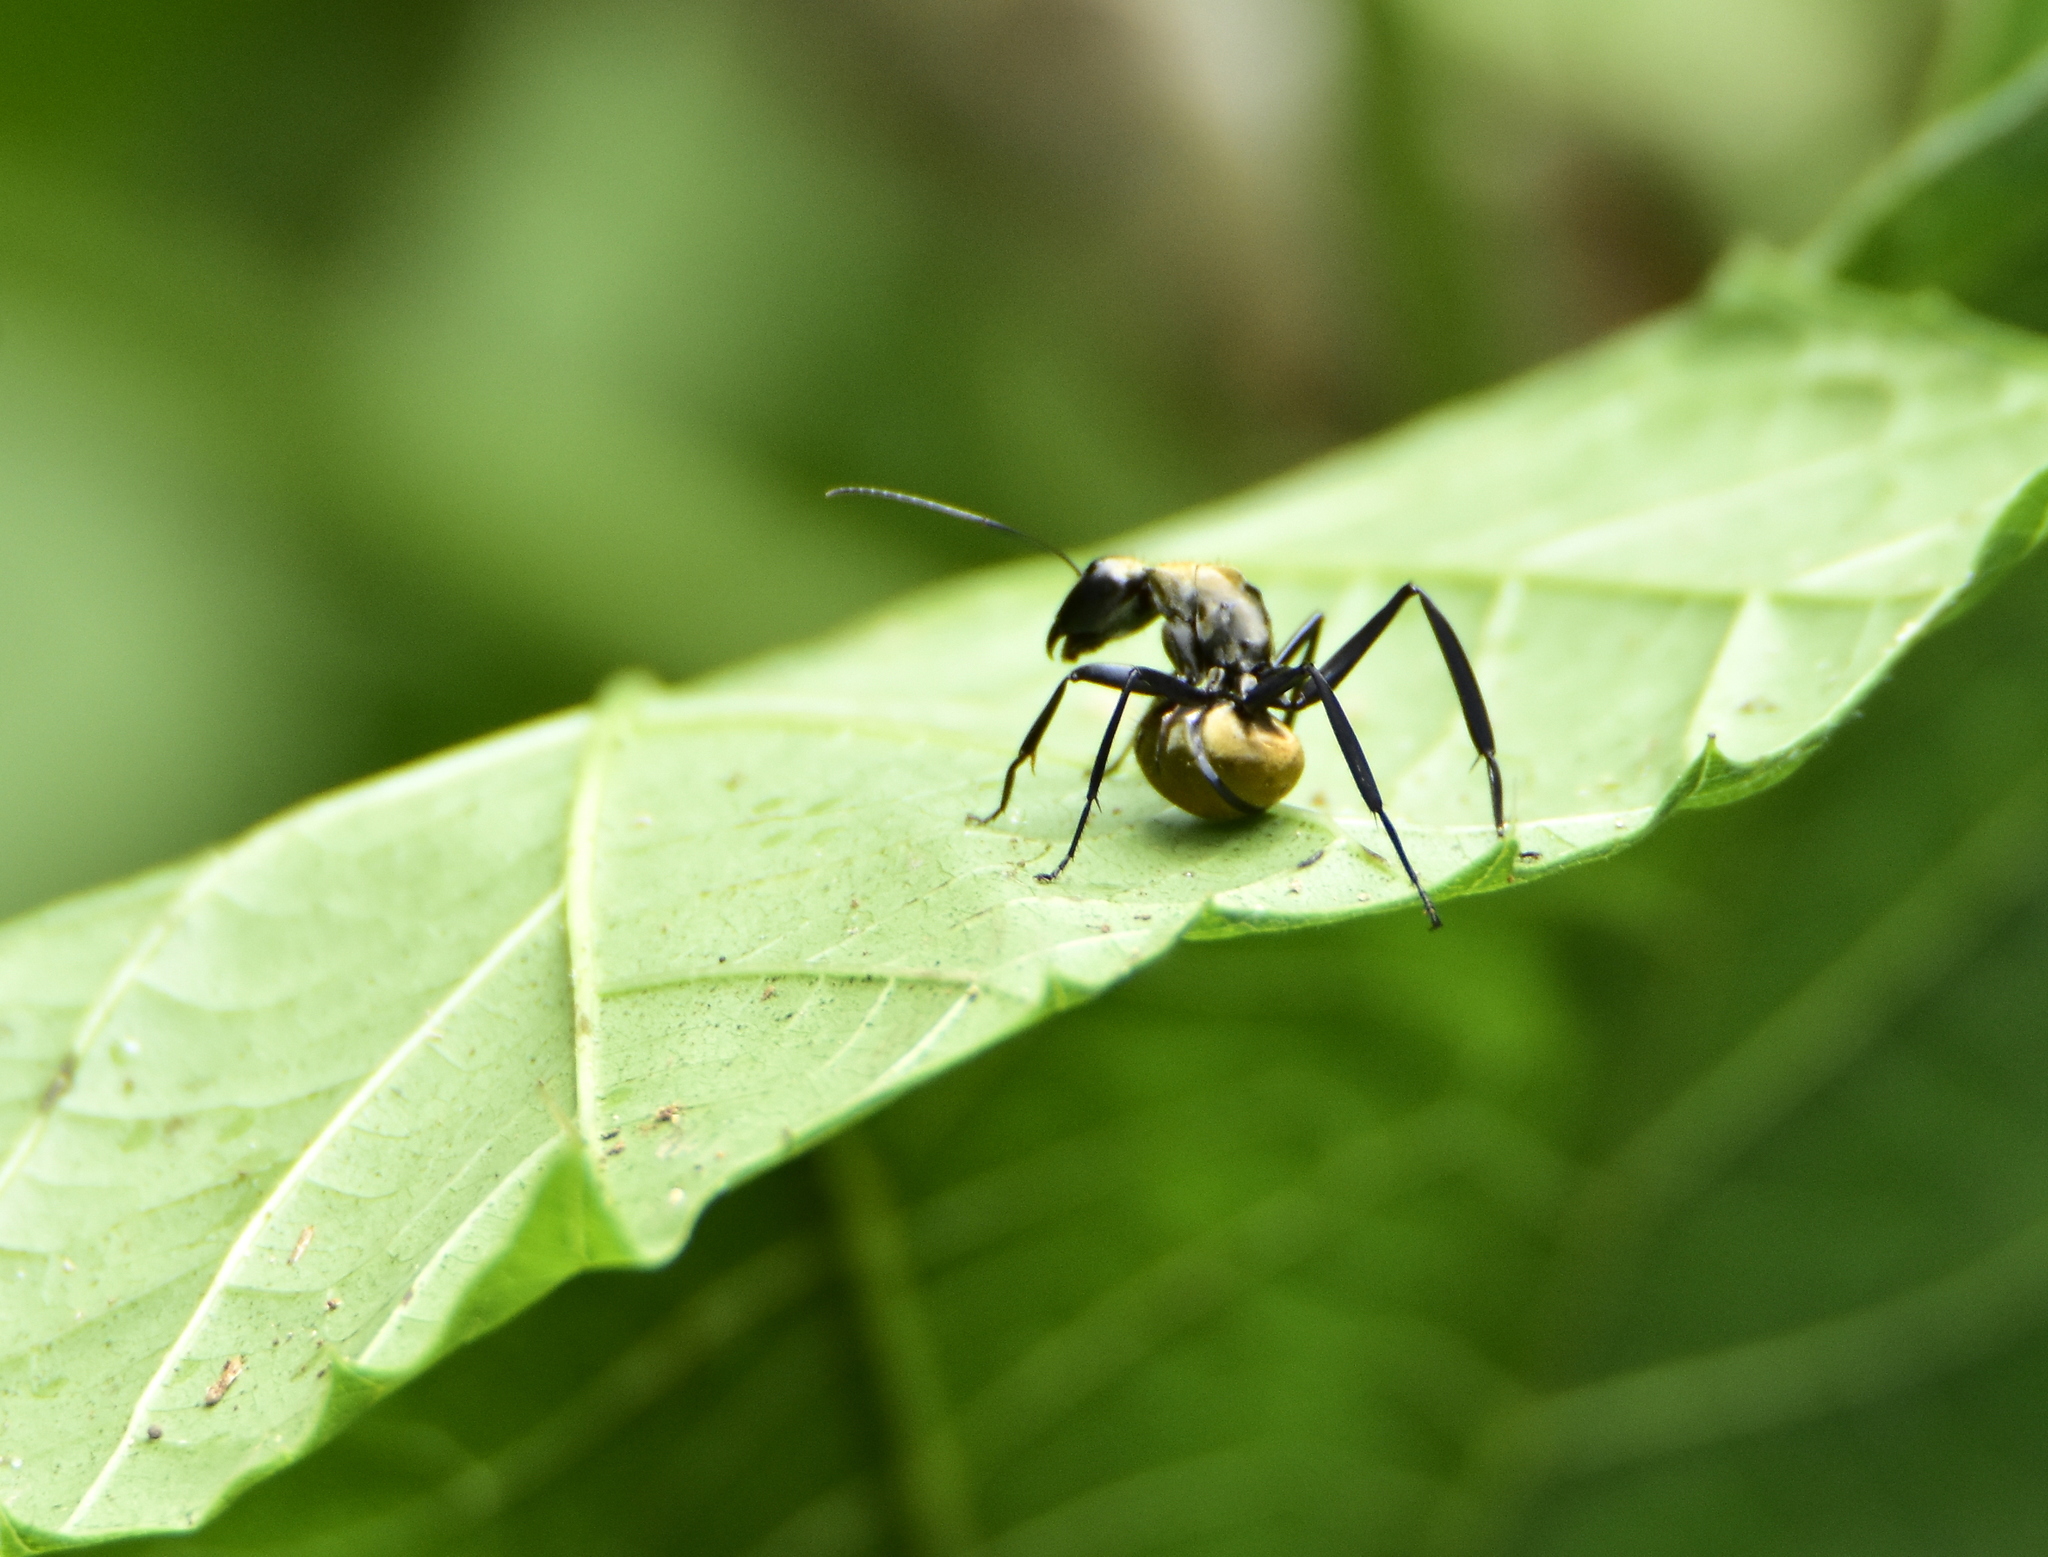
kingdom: Animalia
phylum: Arthropoda
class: Insecta
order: Hymenoptera
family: Formicidae
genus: Camponotus
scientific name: Camponotus sericeiventris
